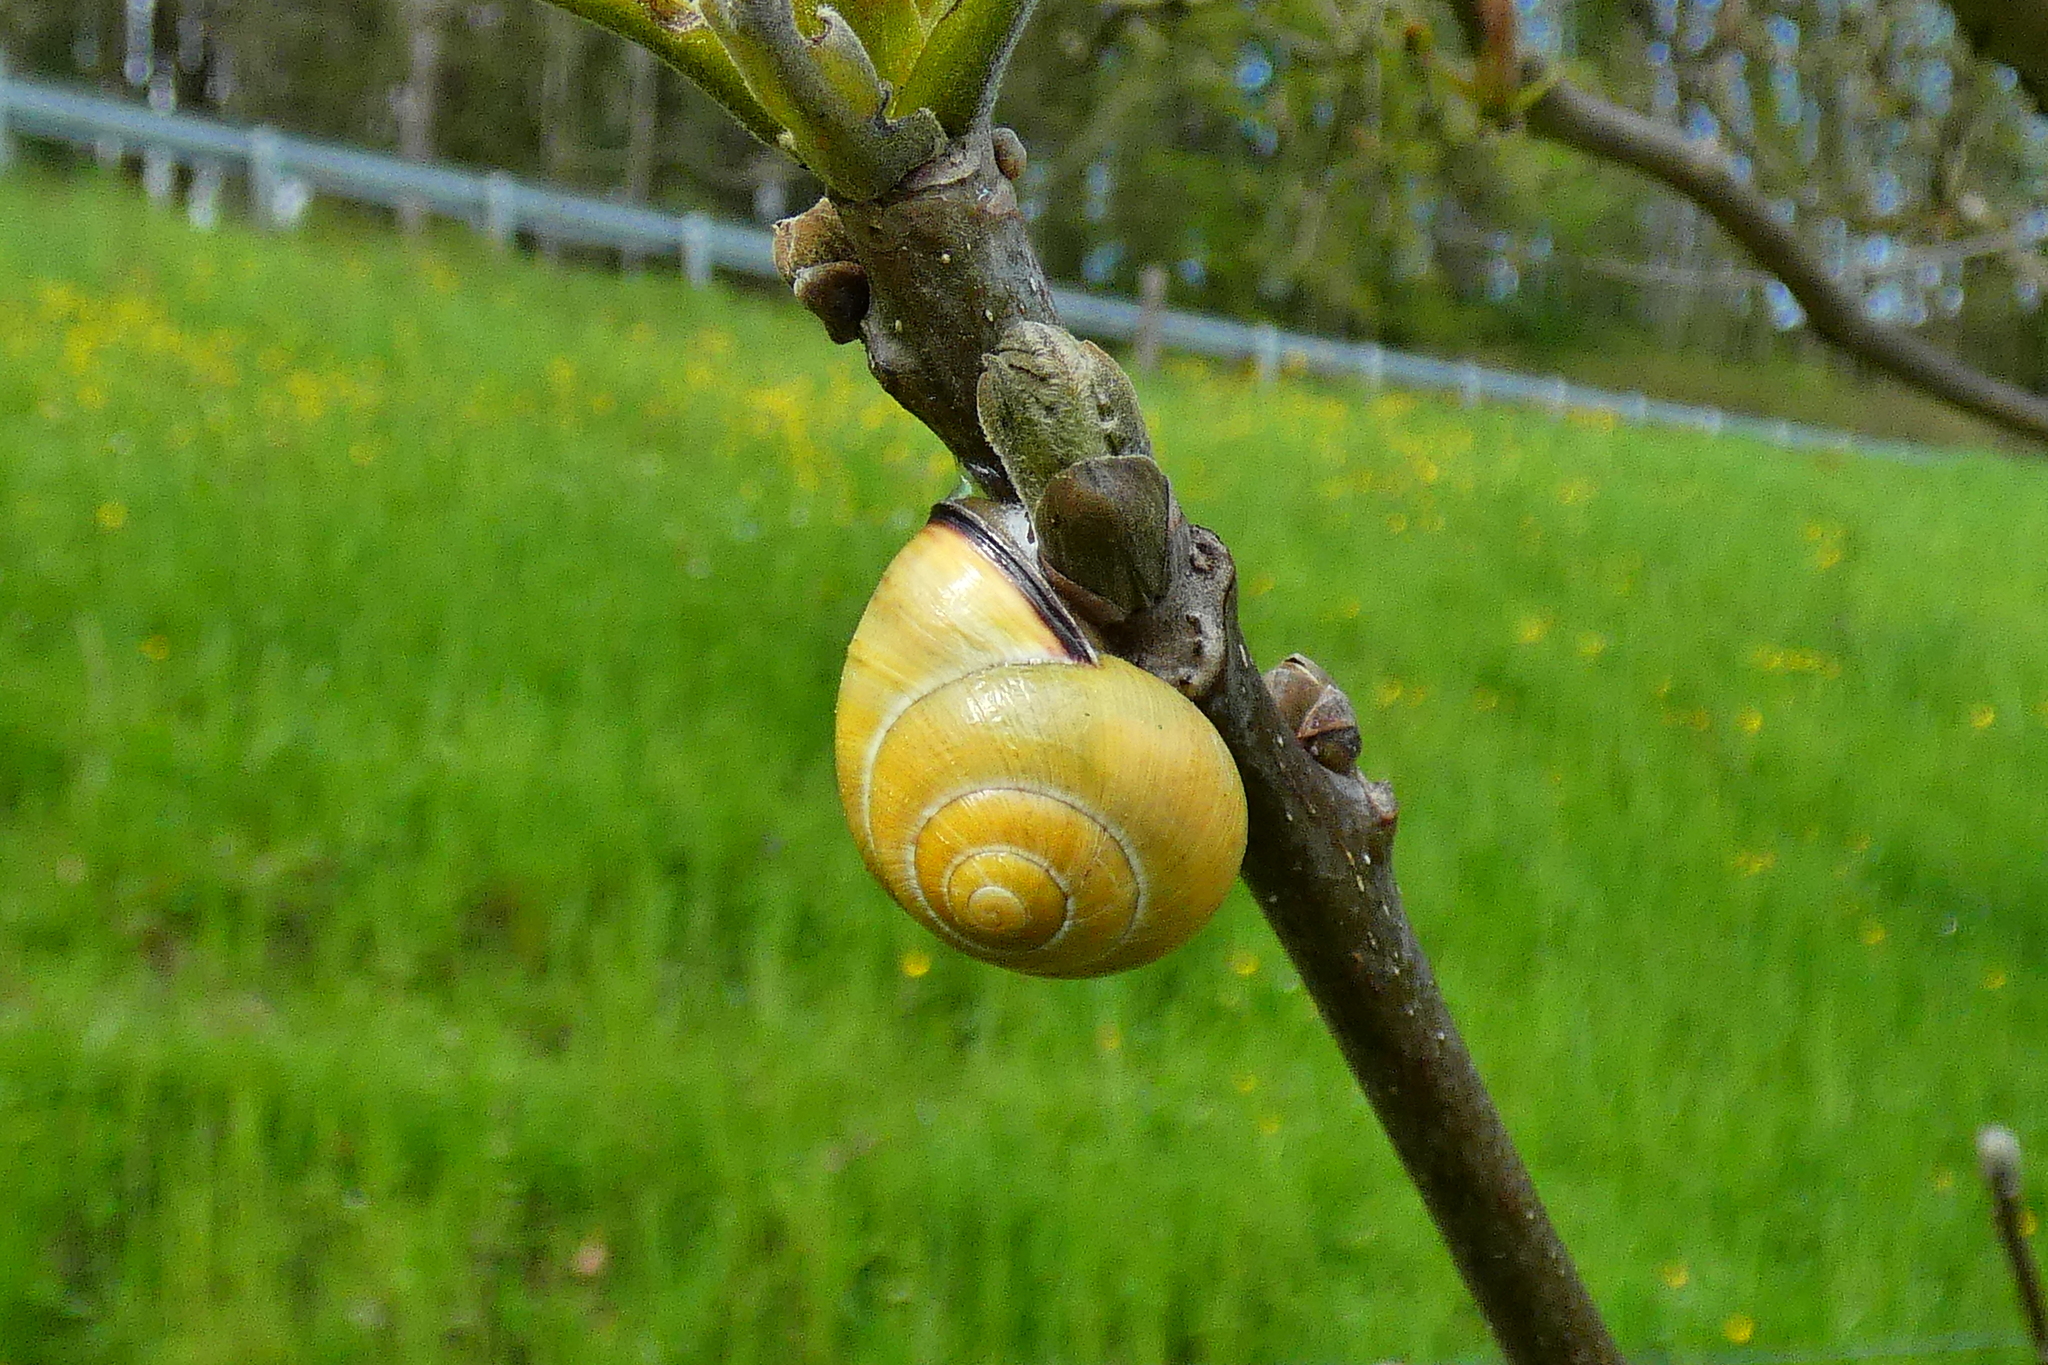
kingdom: Animalia
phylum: Mollusca
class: Gastropoda
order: Stylommatophora
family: Helicidae
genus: Cepaea
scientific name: Cepaea nemoralis
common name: Grovesnail
